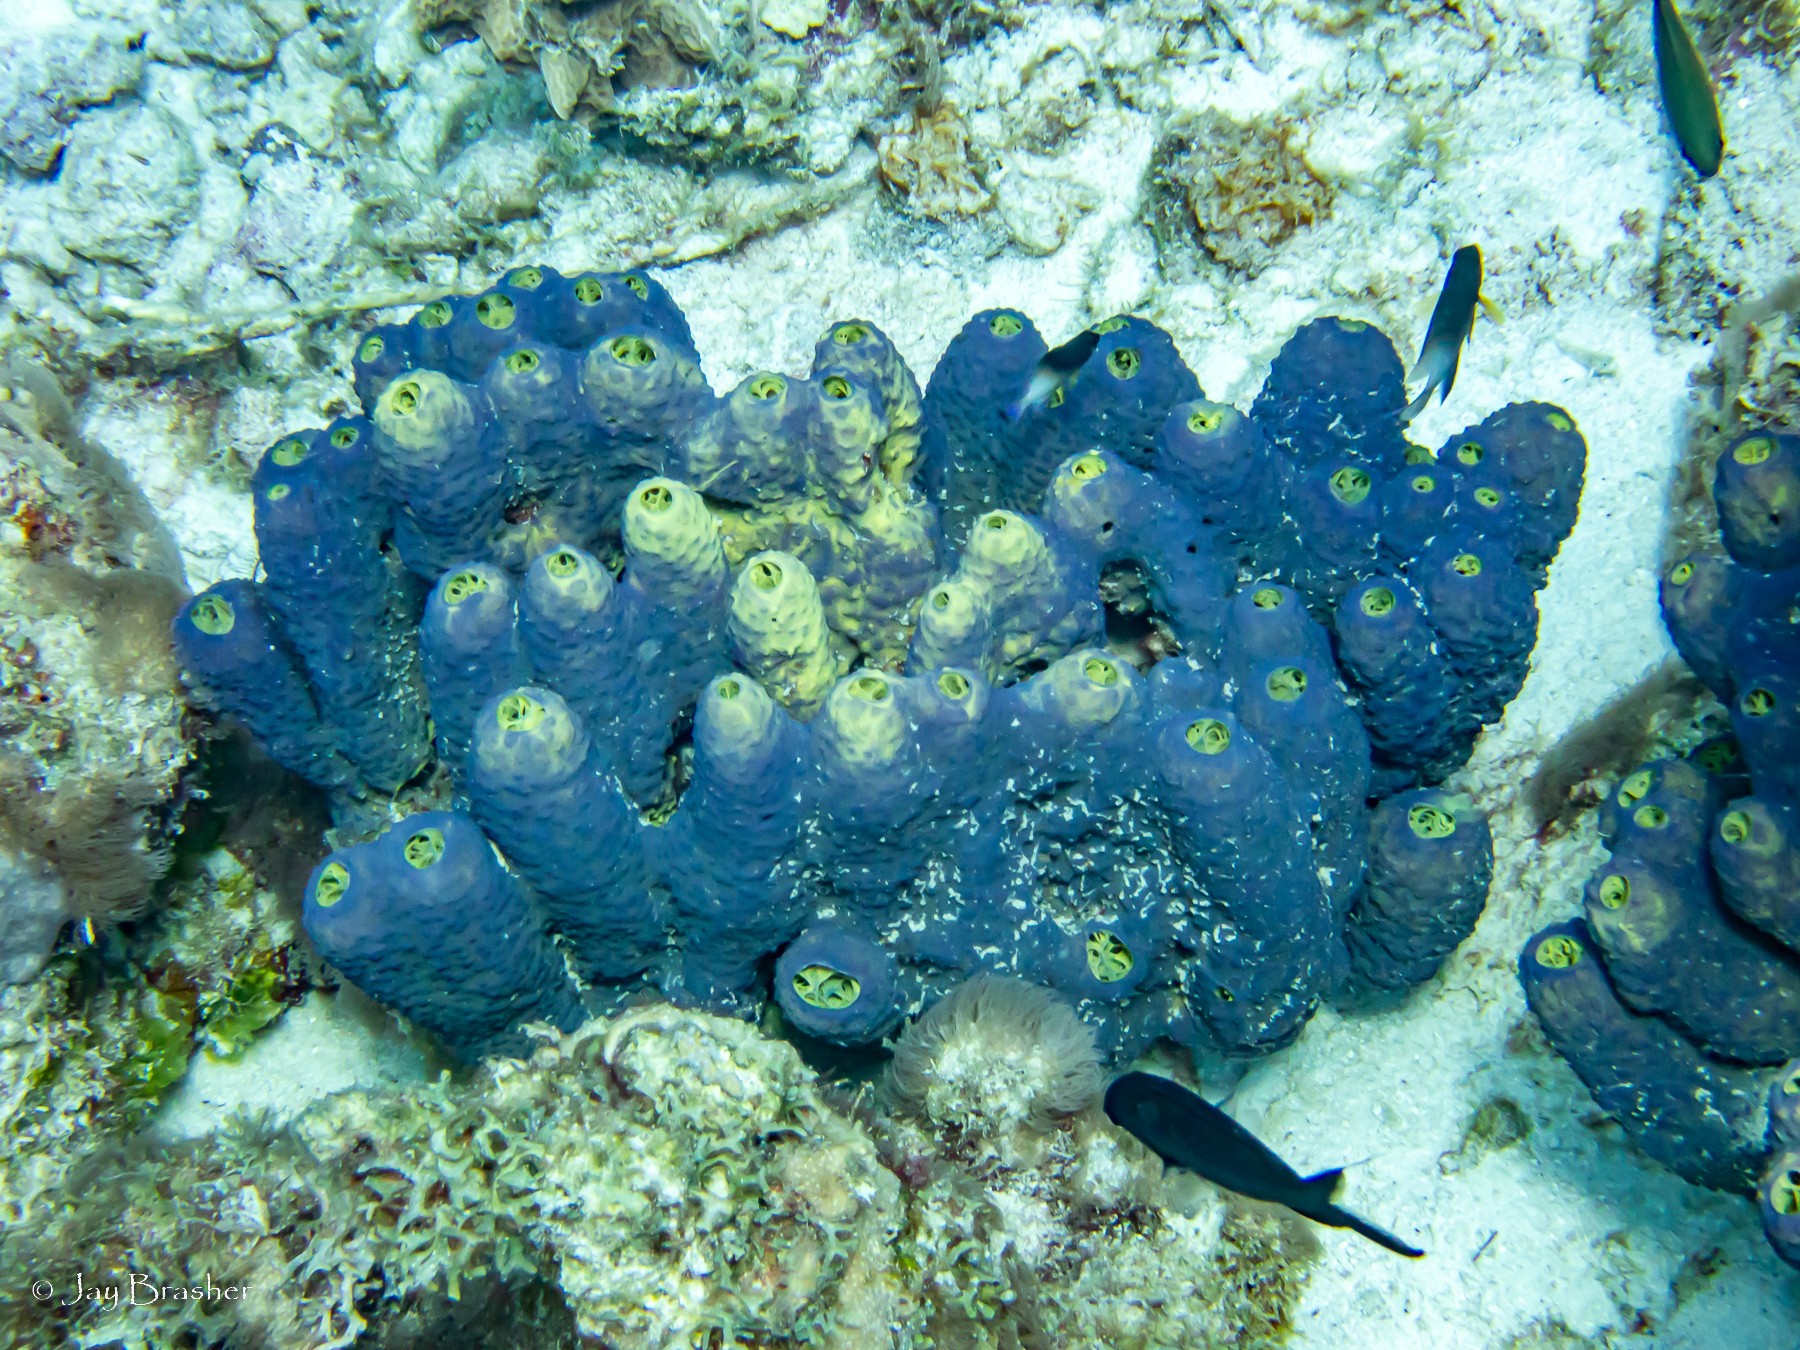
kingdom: Animalia
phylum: Porifera
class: Demospongiae
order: Verongiida
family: Aplysinidae
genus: Aiolochroia
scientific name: Aiolochroia crassa
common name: Branching tube sponge
